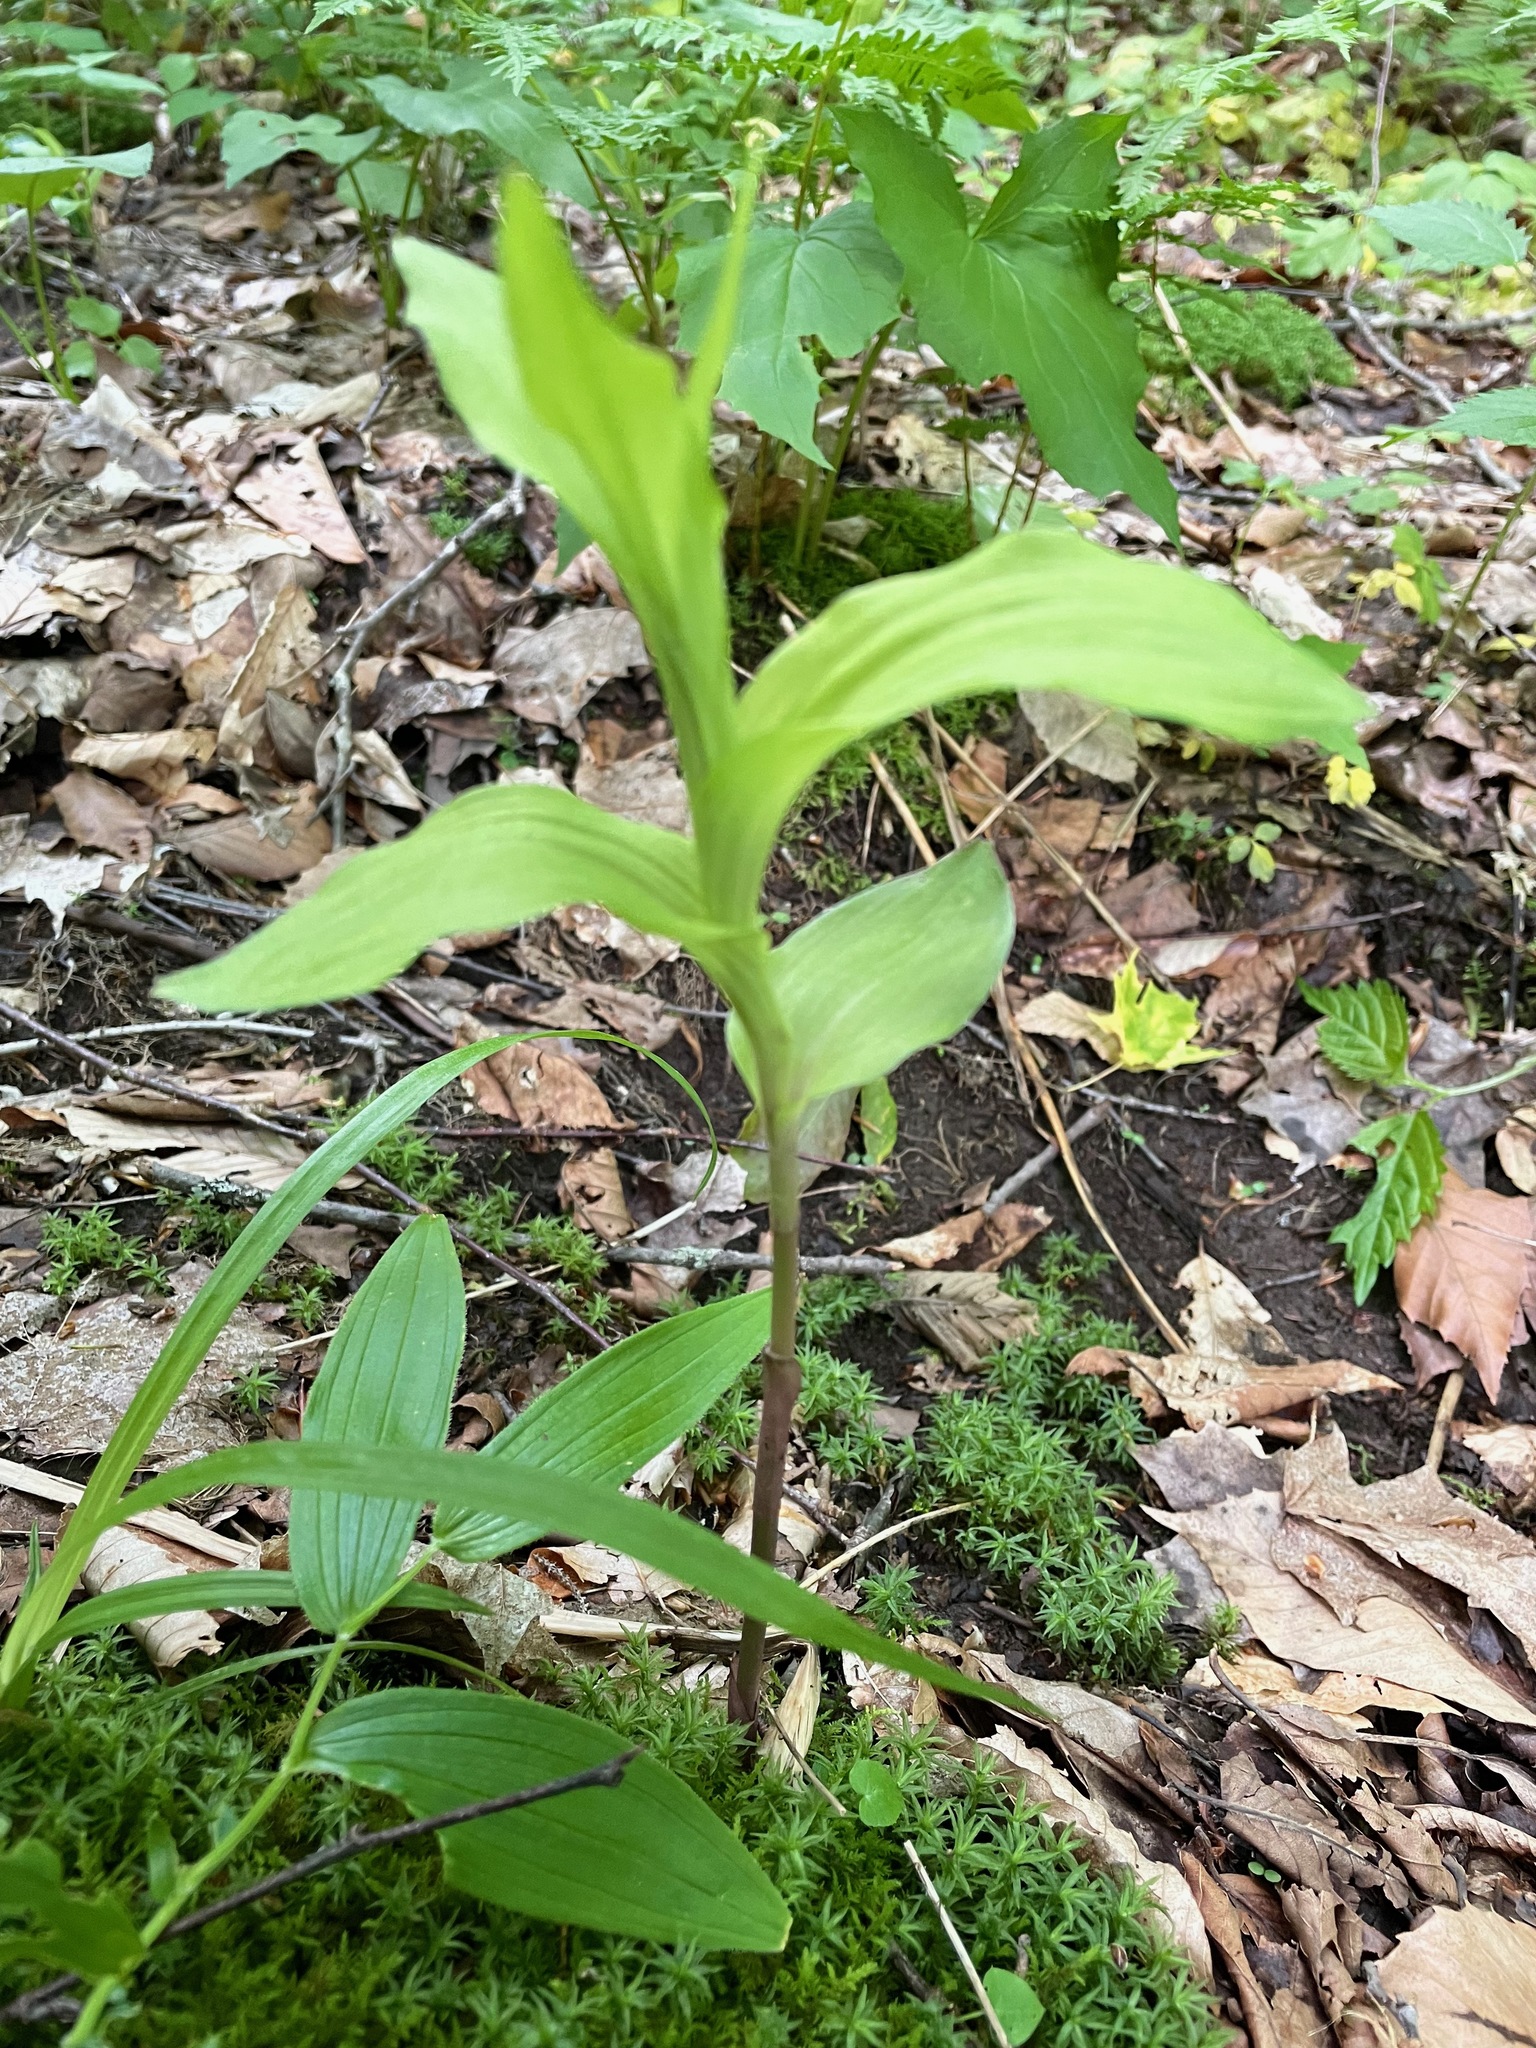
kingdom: Plantae
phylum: Tracheophyta
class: Liliopsida
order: Asparagales
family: Orchidaceae
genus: Epipactis
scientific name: Epipactis helleborine
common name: Broad-leaved helleborine
